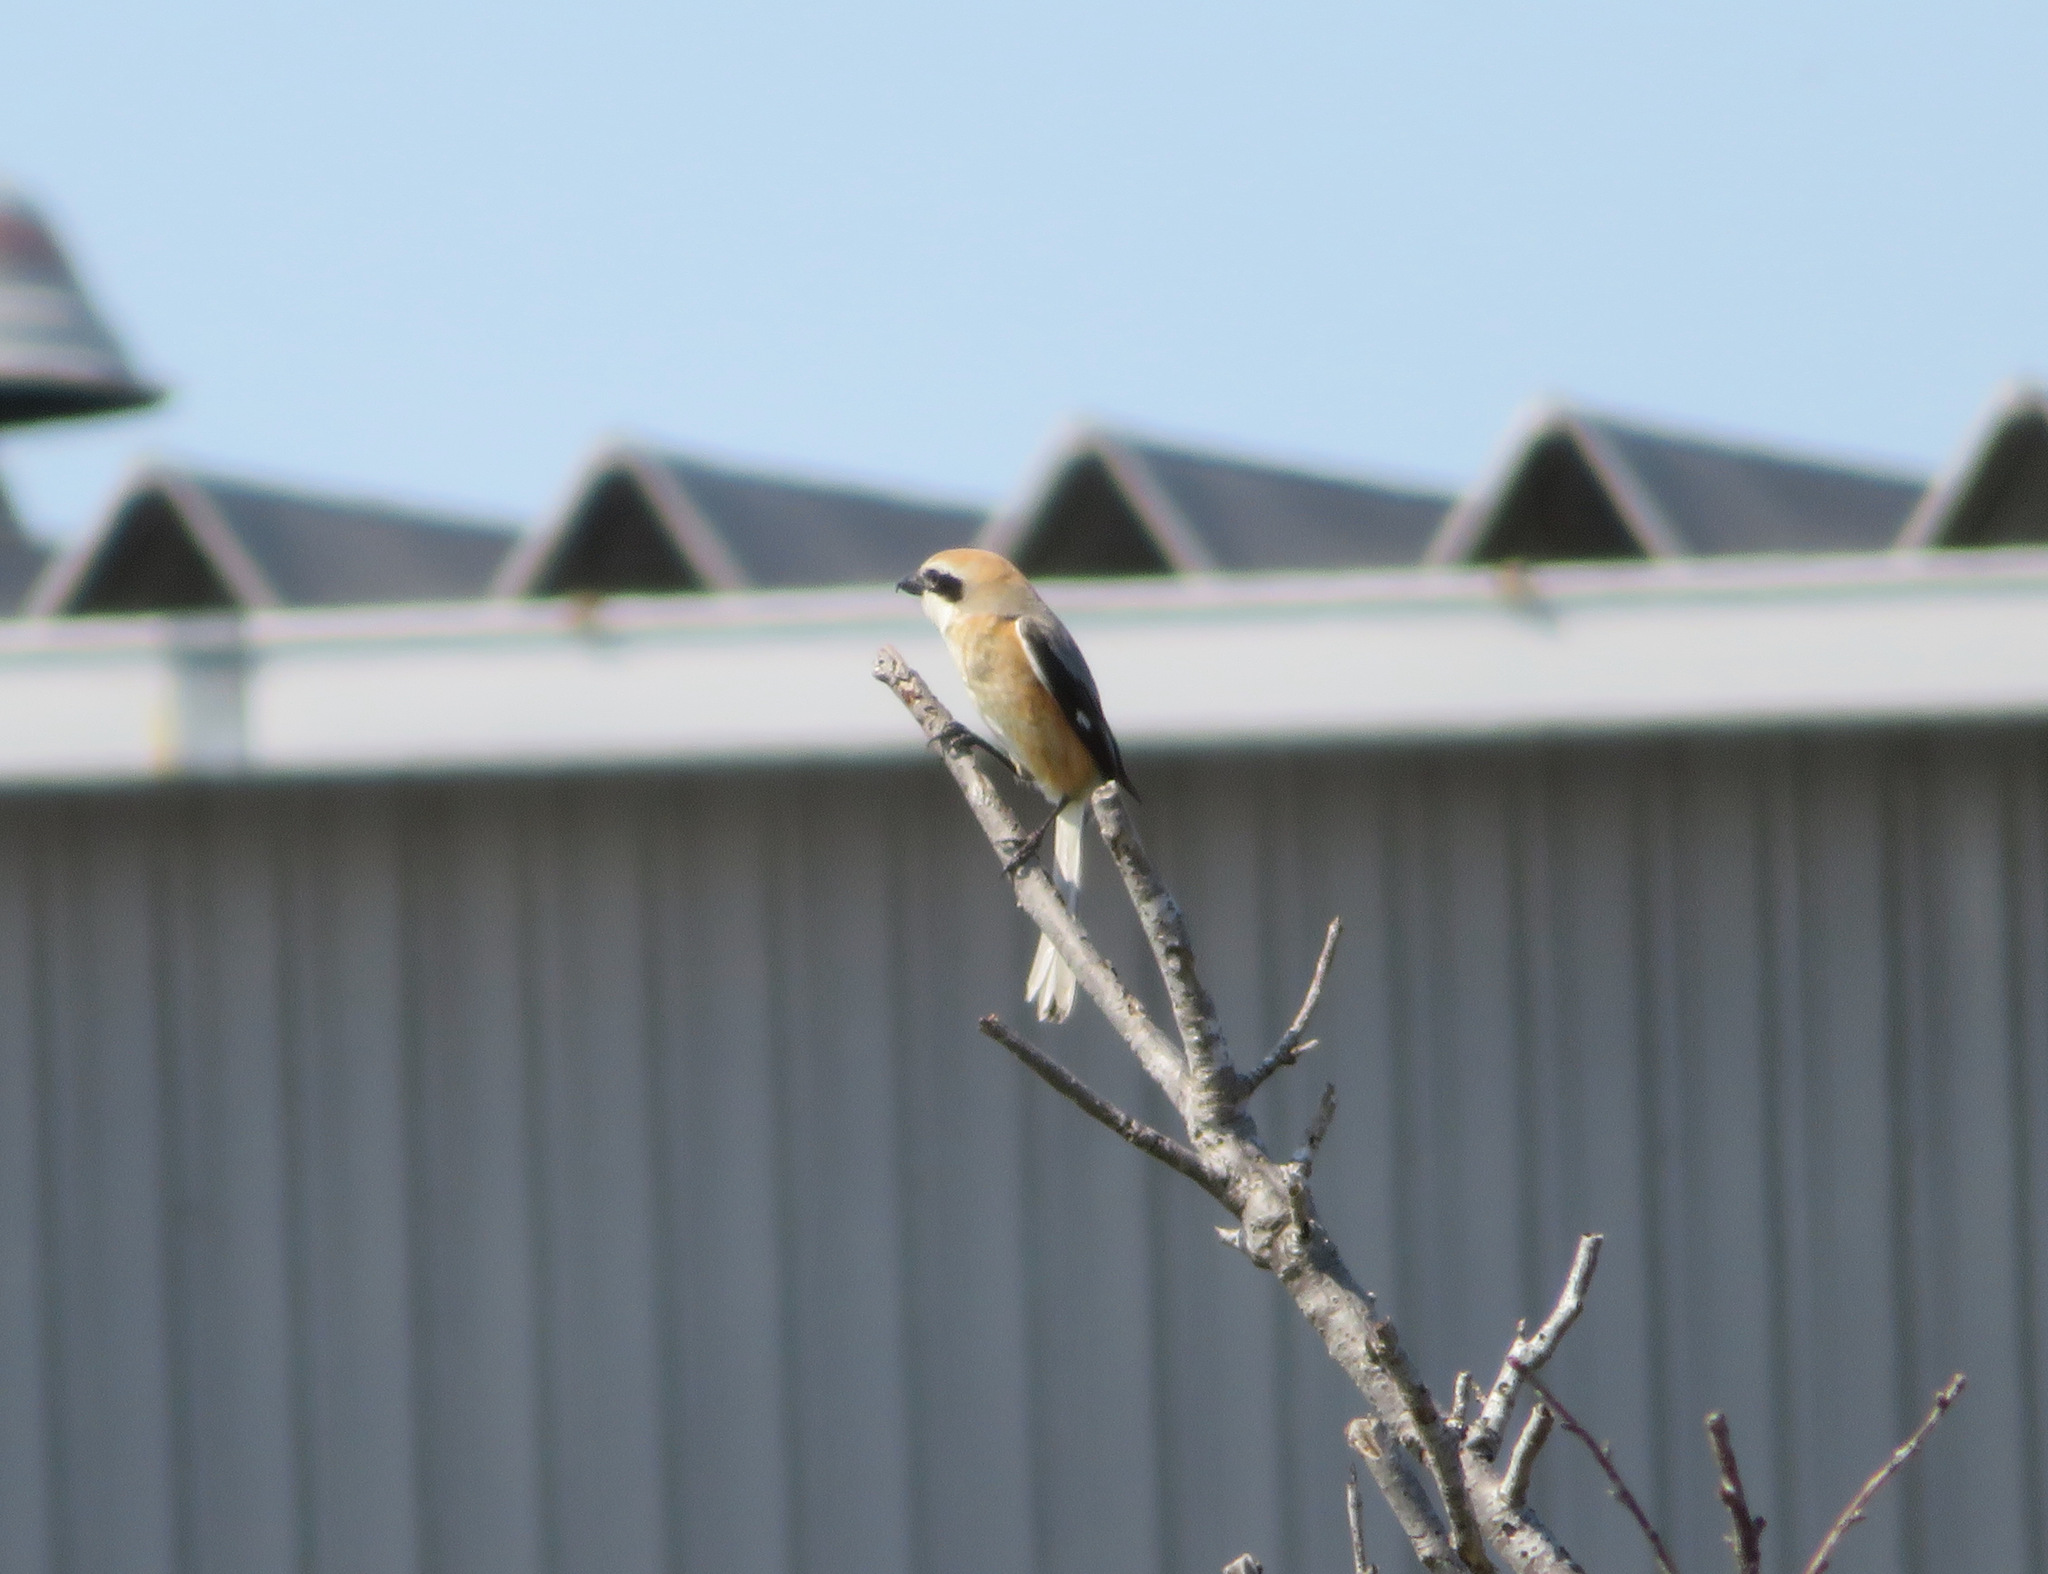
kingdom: Animalia
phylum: Chordata
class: Aves
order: Passeriformes
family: Laniidae
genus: Lanius
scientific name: Lanius bucephalus
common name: Bull-headed shrike
